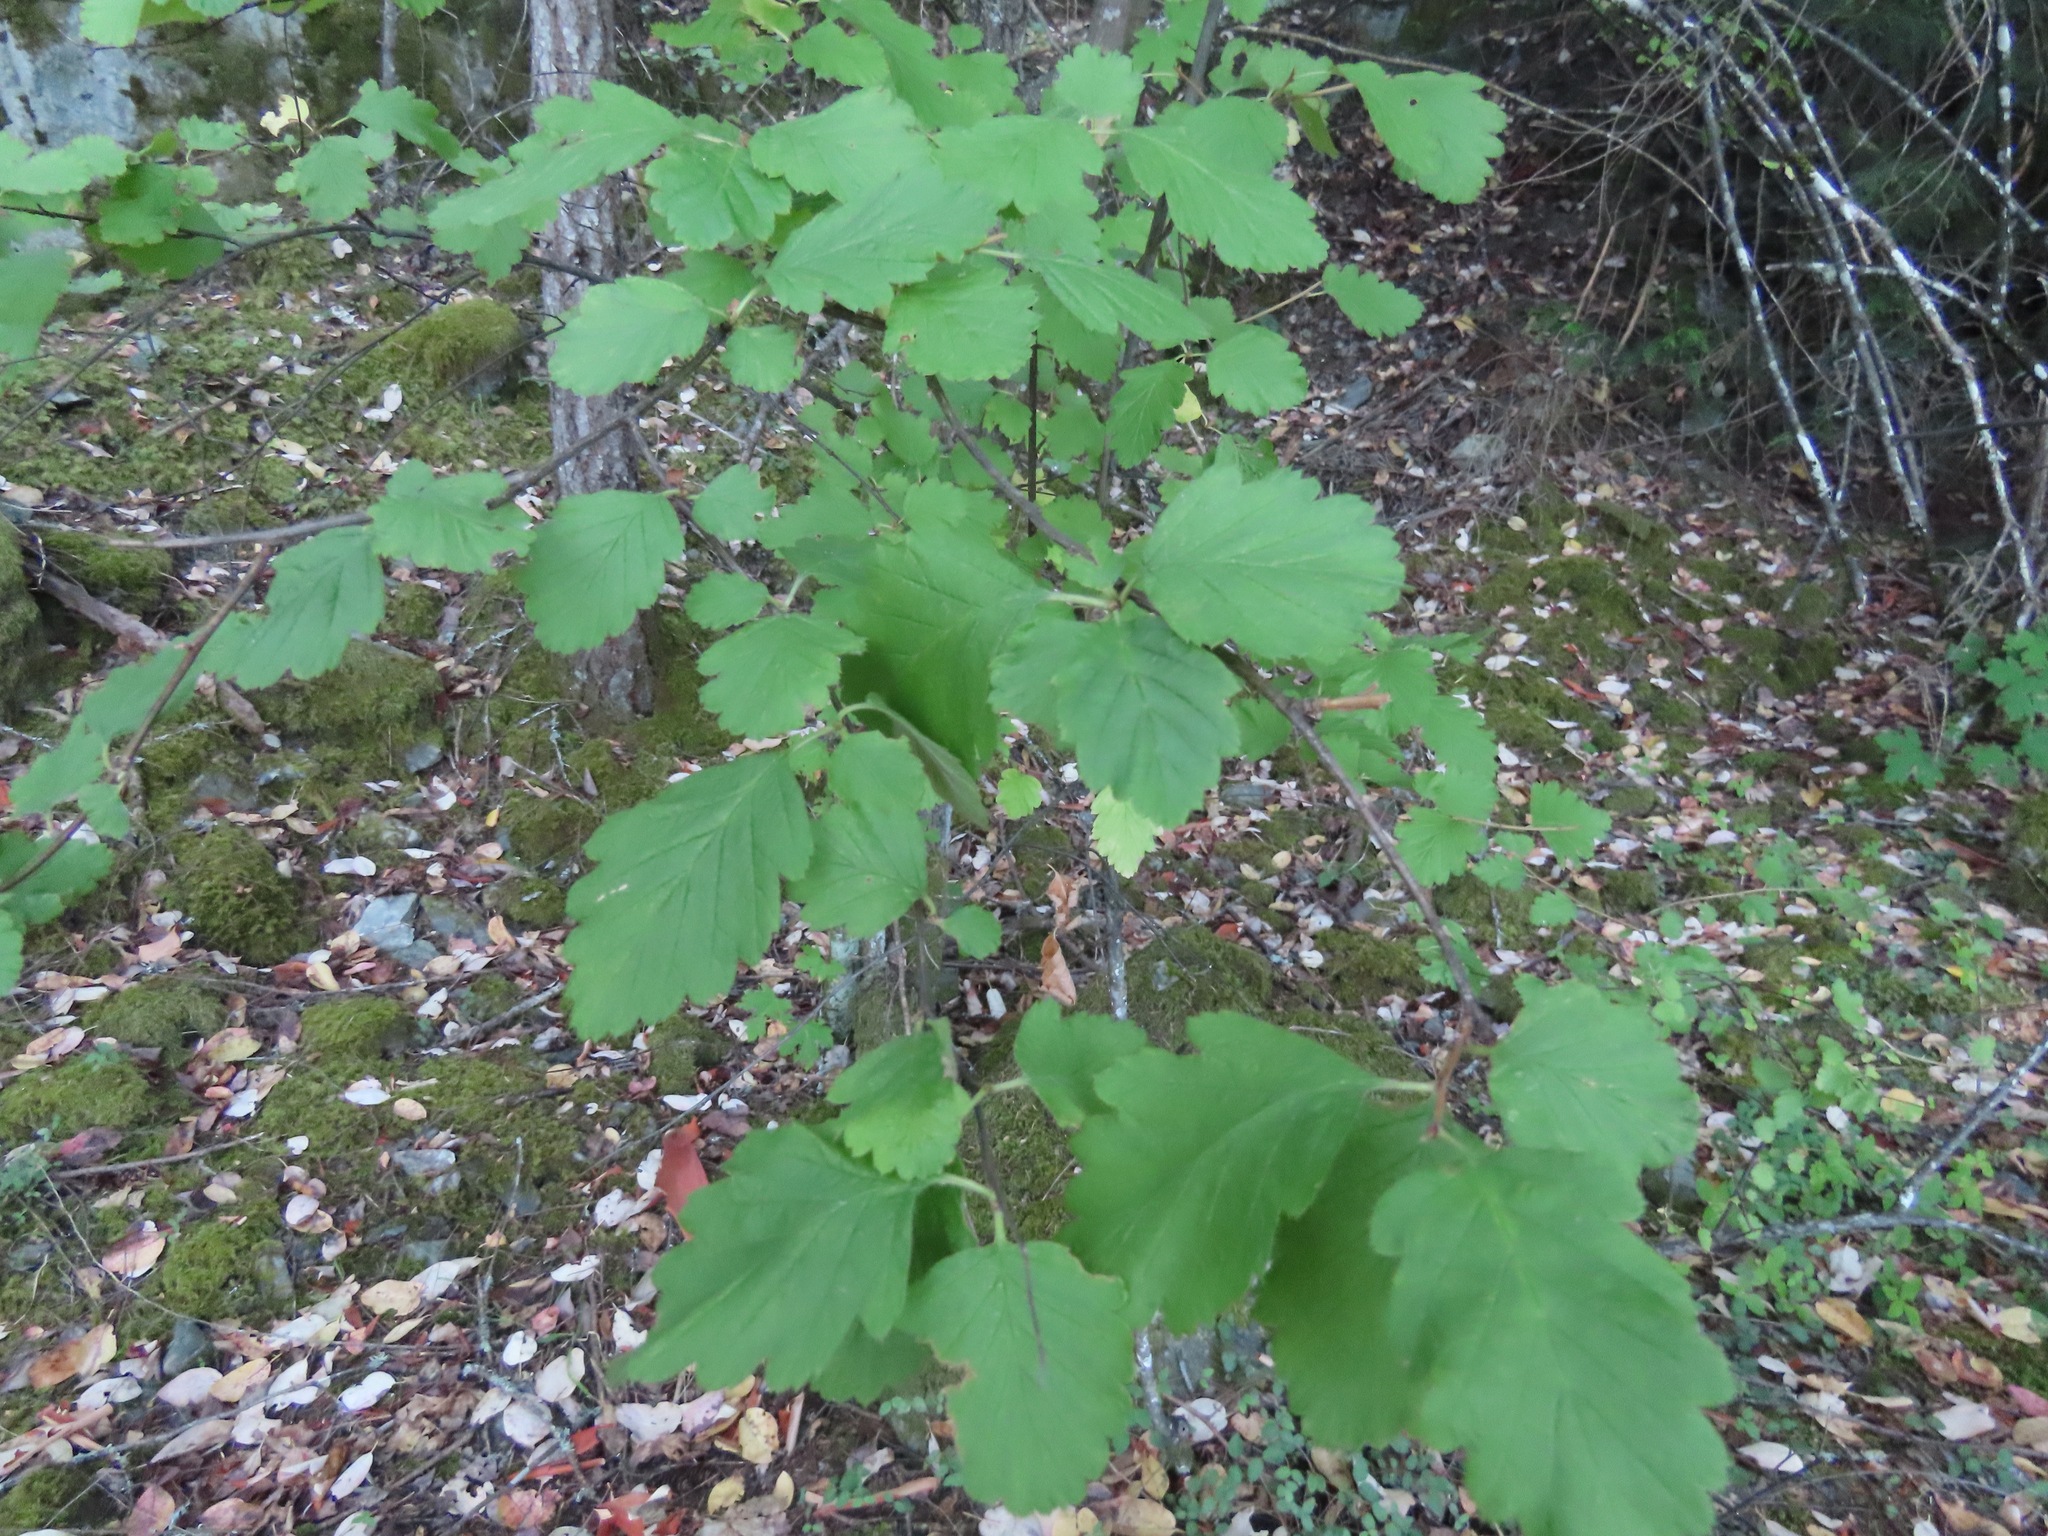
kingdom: Plantae
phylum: Tracheophyta
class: Magnoliopsida
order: Rosales
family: Rosaceae
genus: Holodiscus
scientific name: Holodiscus discolor
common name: Oceanspray
